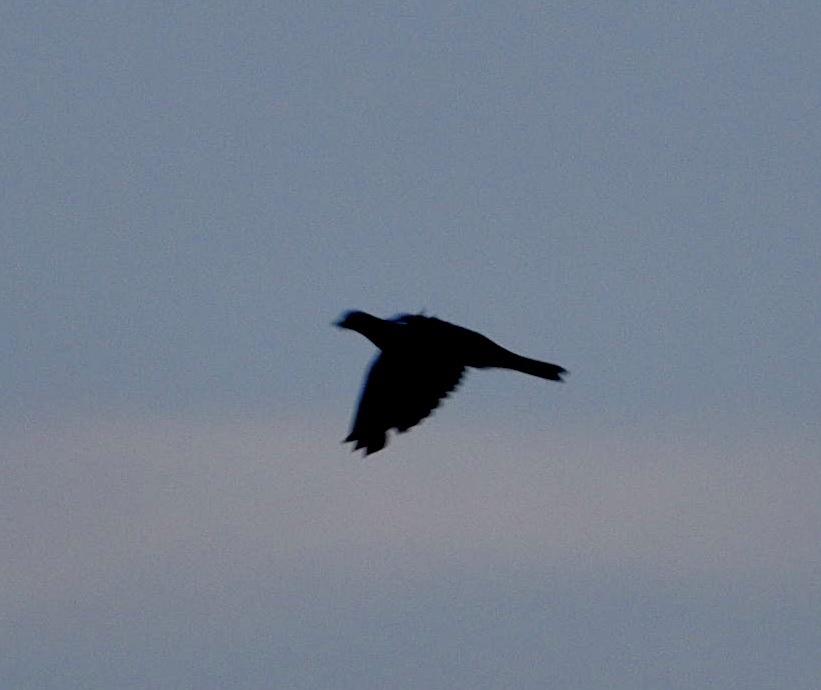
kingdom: Animalia
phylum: Chordata
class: Aves
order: Columbiformes
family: Columbidae
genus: Columba
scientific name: Columba palumbus
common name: Common wood pigeon
